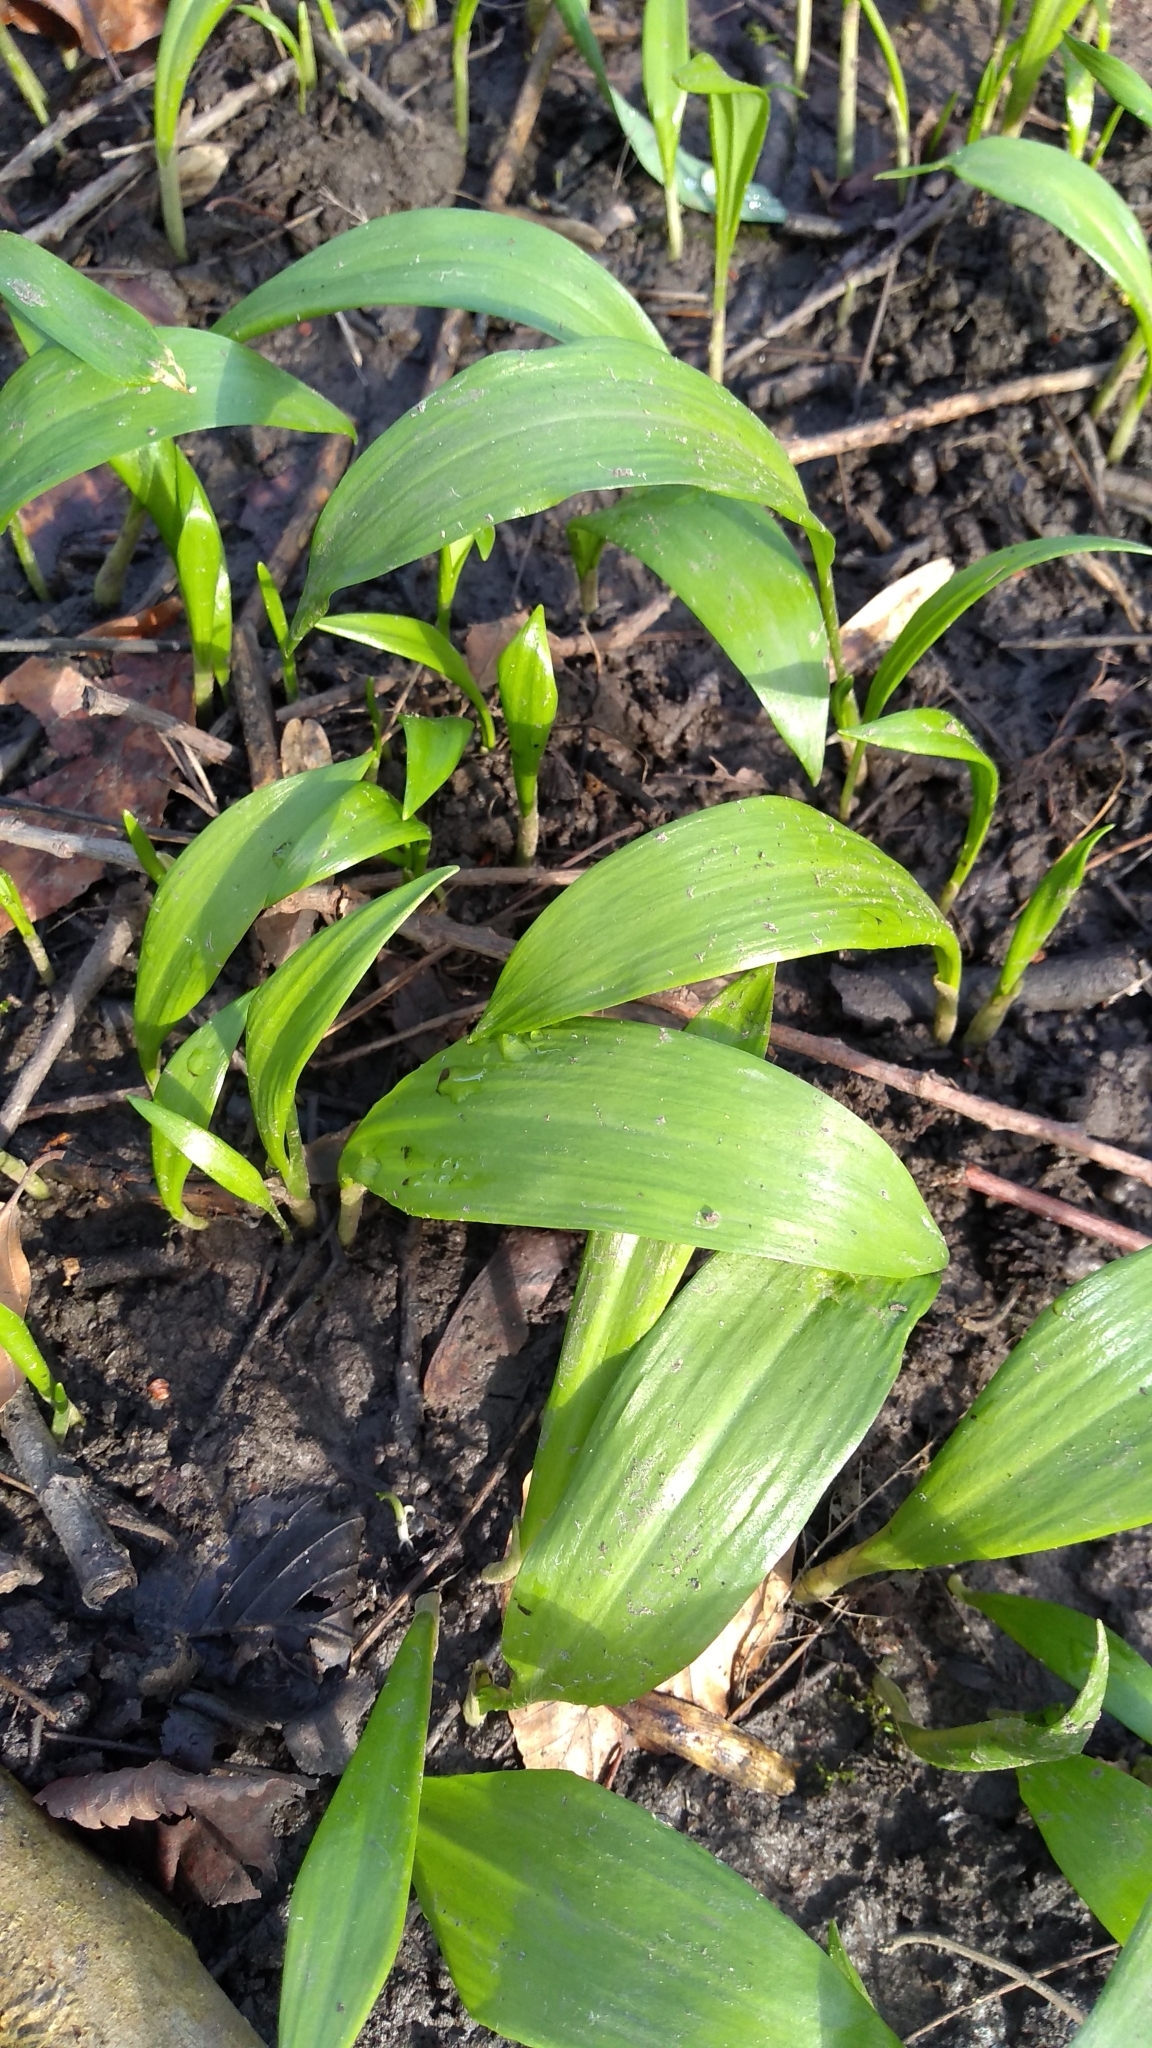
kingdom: Plantae
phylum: Tracheophyta
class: Liliopsida
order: Asparagales
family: Amaryllidaceae
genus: Allium
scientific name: Allium ursinum
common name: Ramsons
